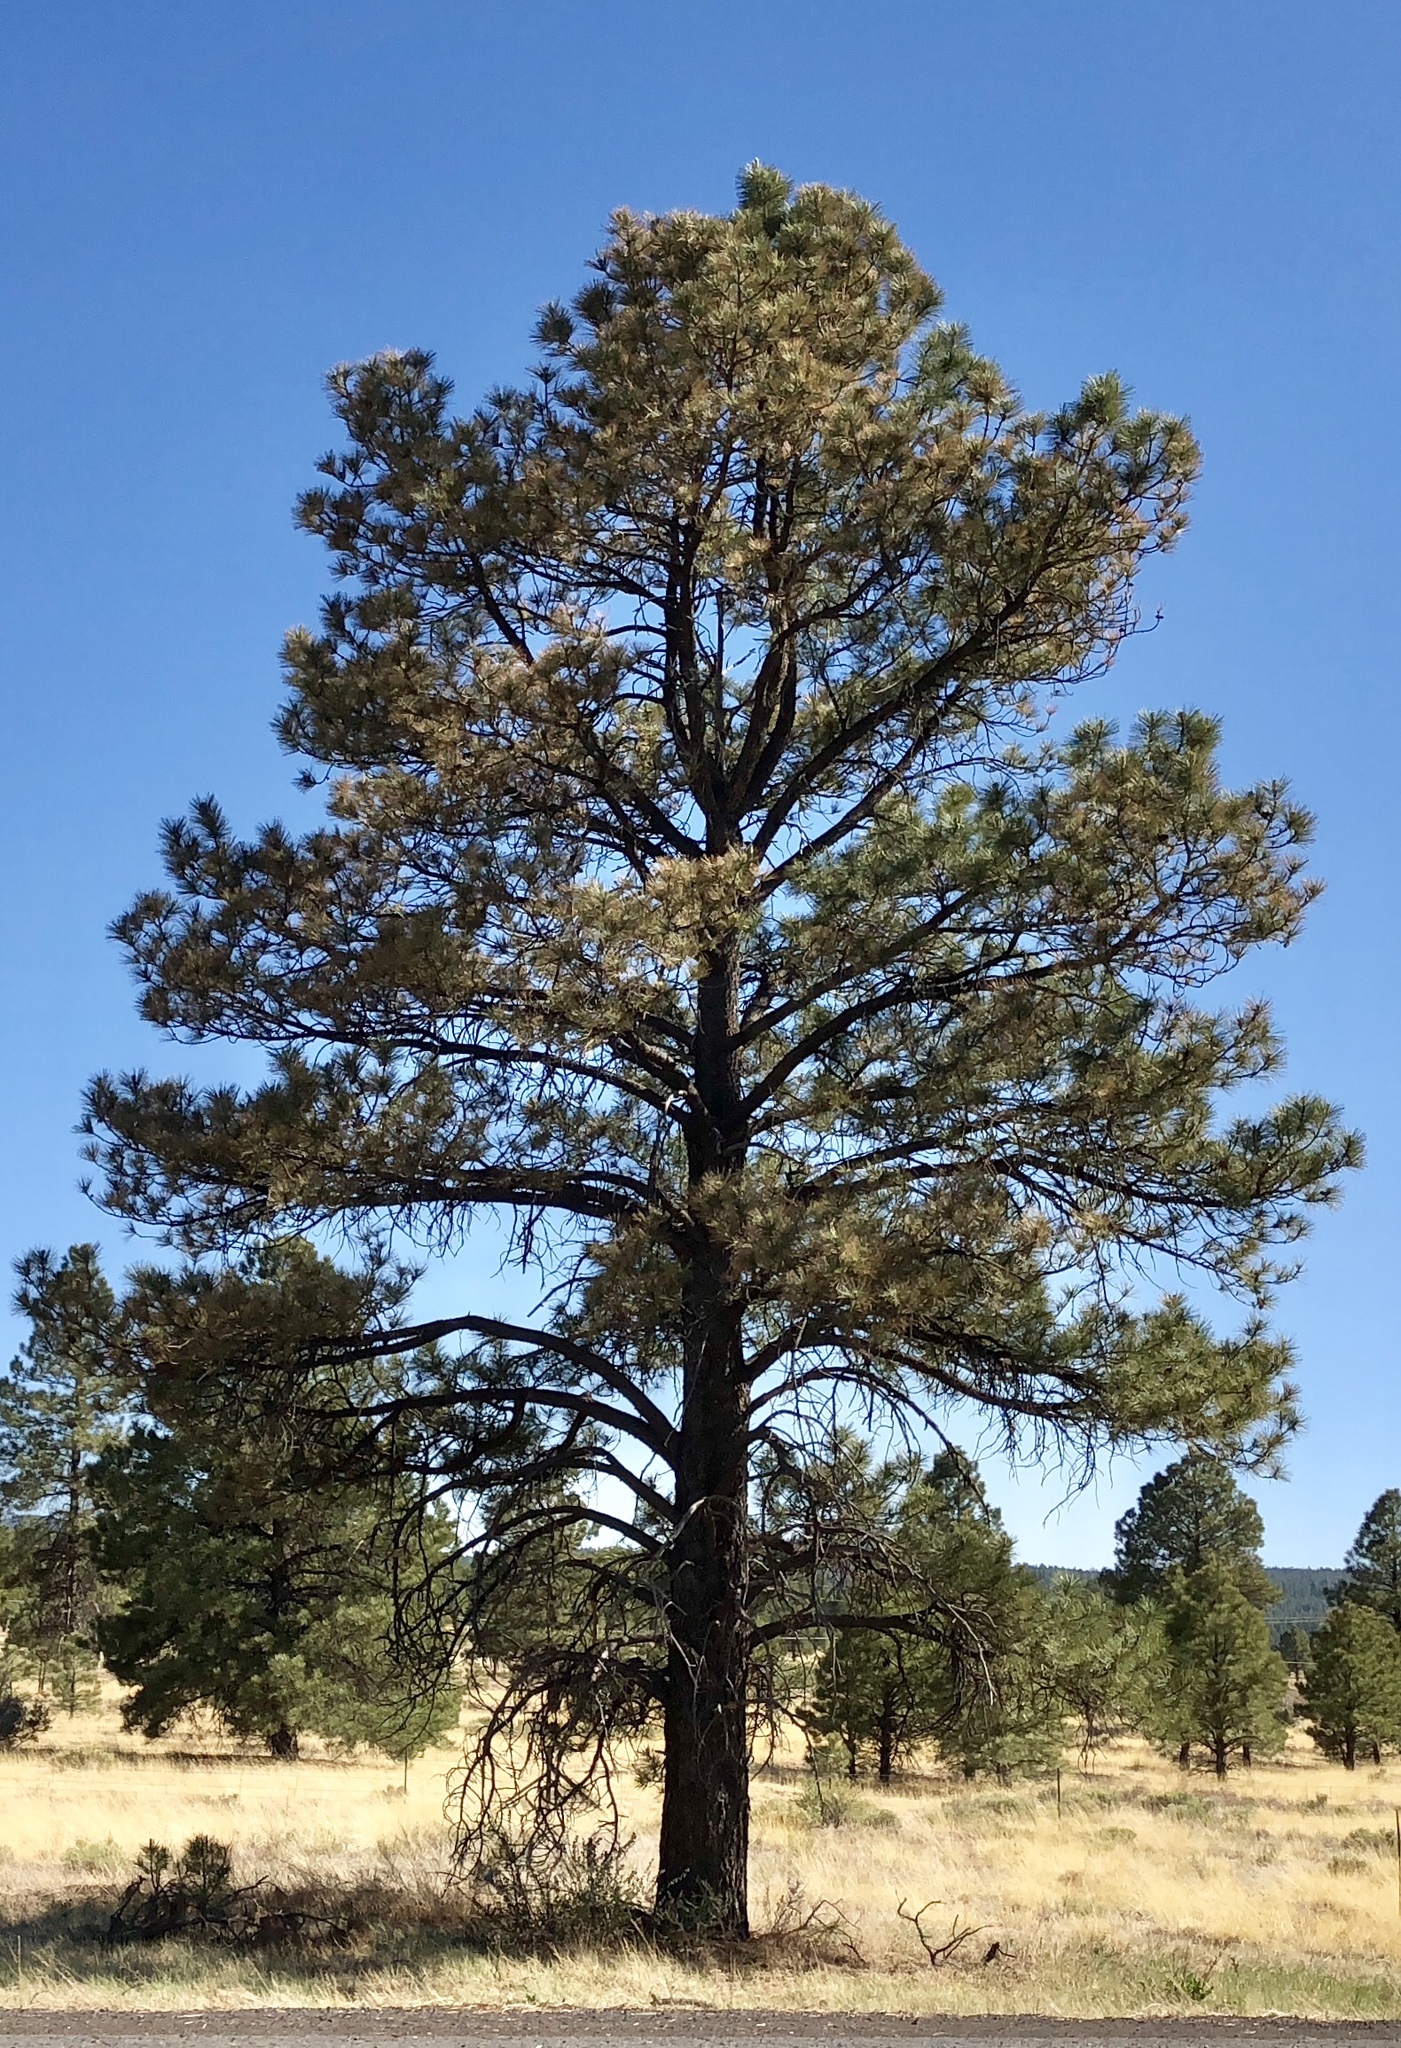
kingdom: Plantae
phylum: Tracheophyta
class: Pinopsida
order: Pinales
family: Pinaceae
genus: Pinus
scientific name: Pinus ponderosa
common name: Western yellow-pine
